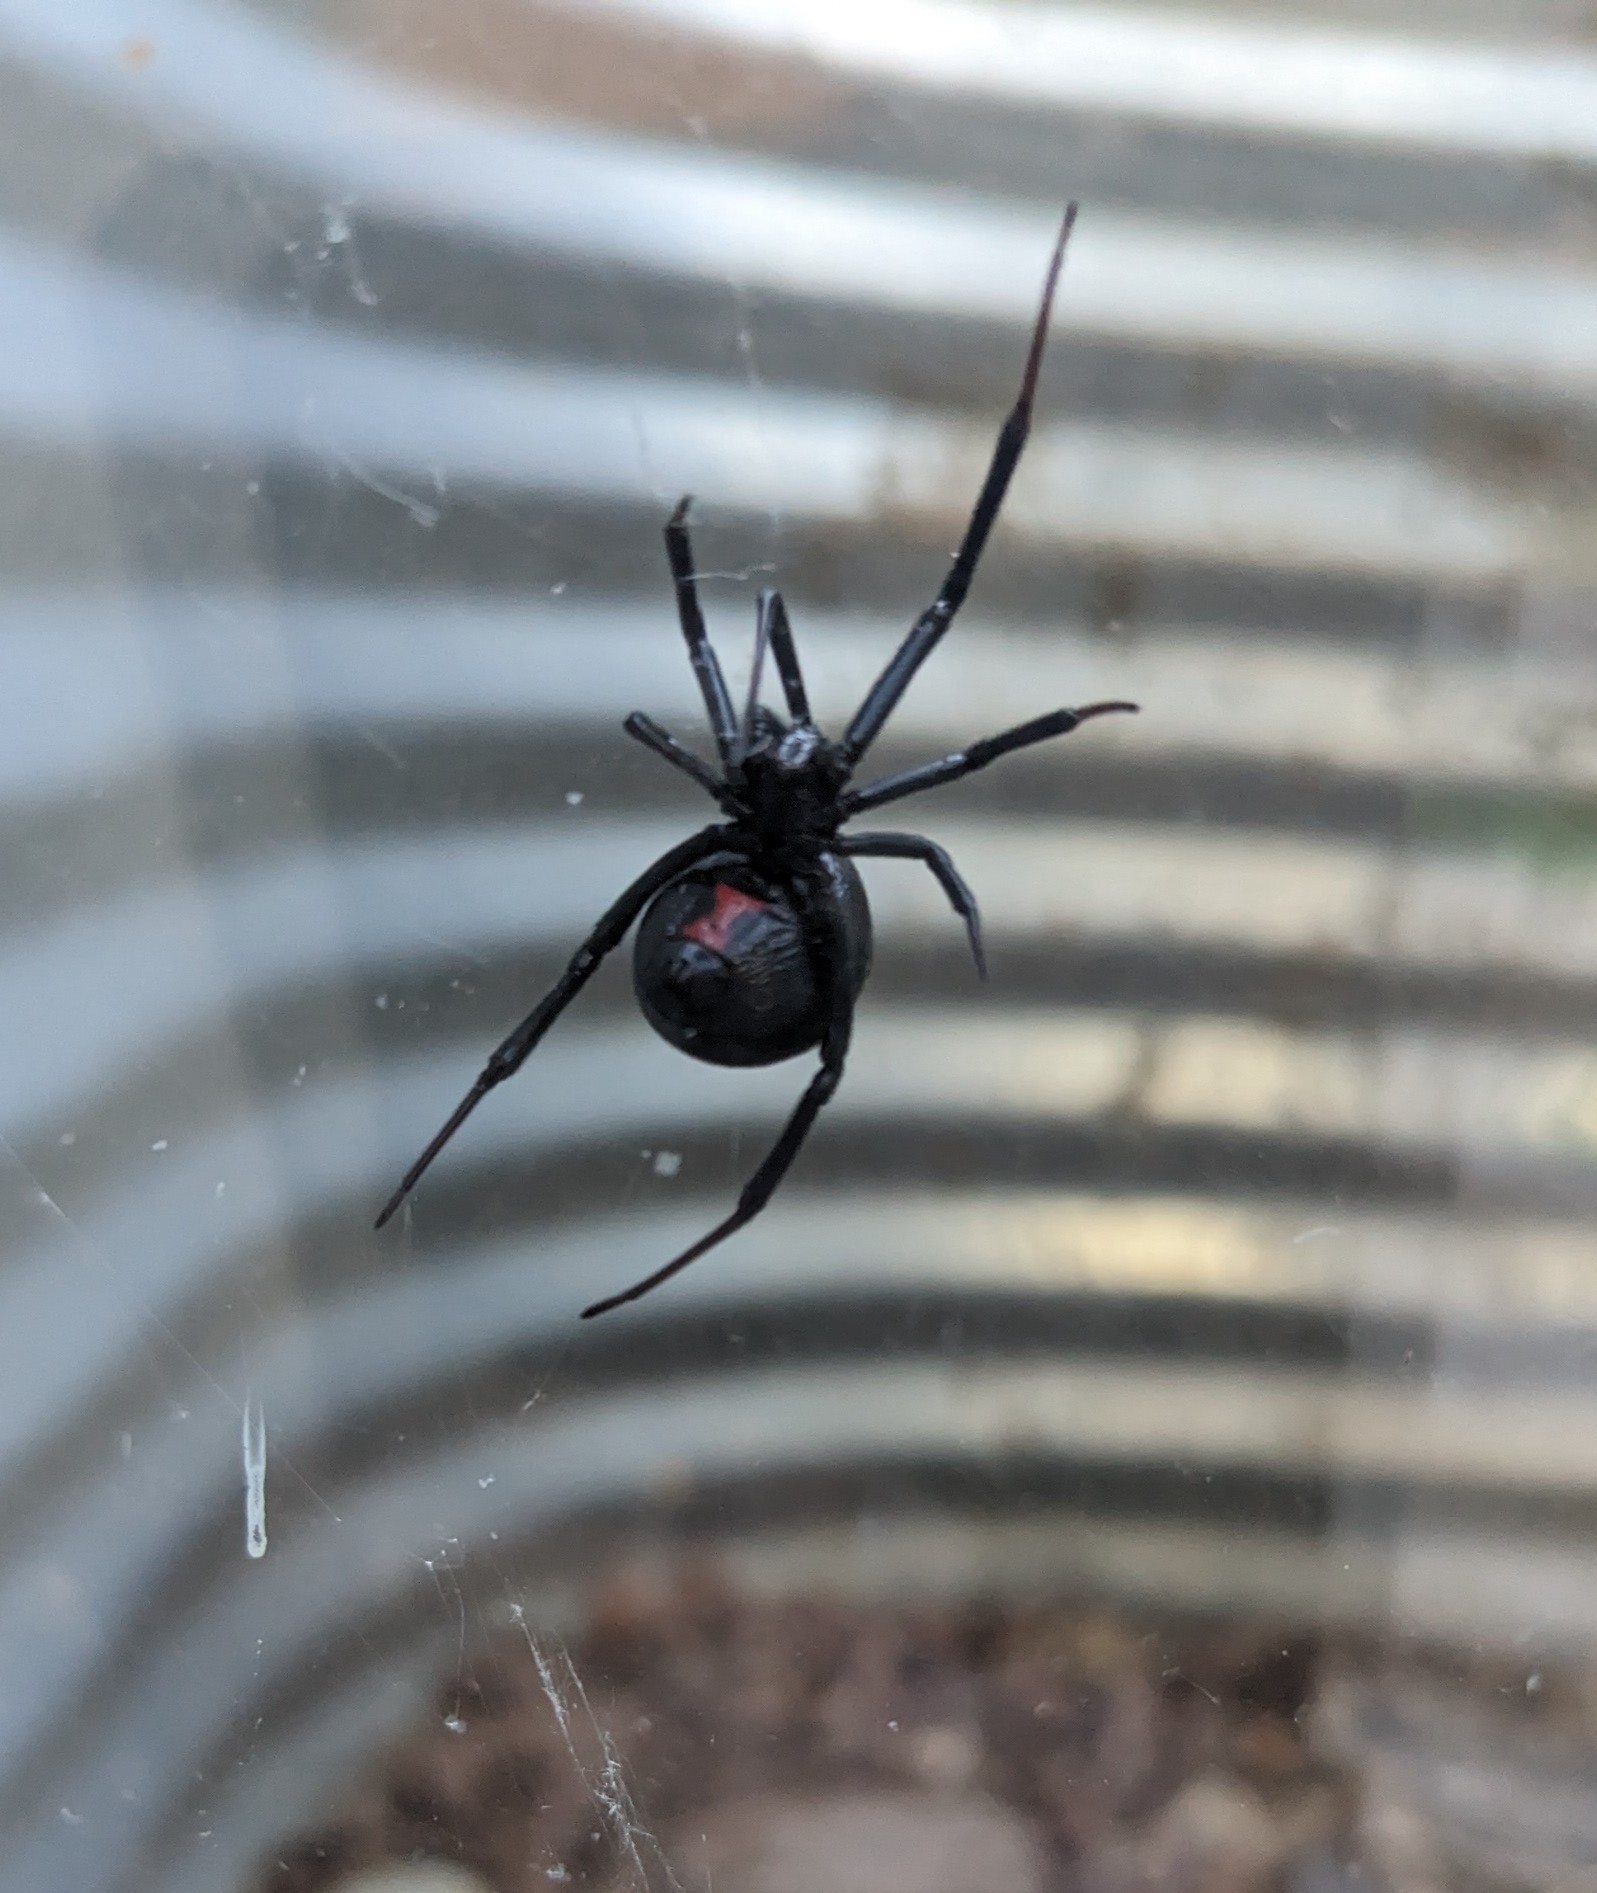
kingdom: Animalia
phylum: Arthropoda
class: Arachnida
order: Araneae
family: Theridiidae
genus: Latrodectus
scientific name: Latrodectus hesperus
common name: Western black widow
